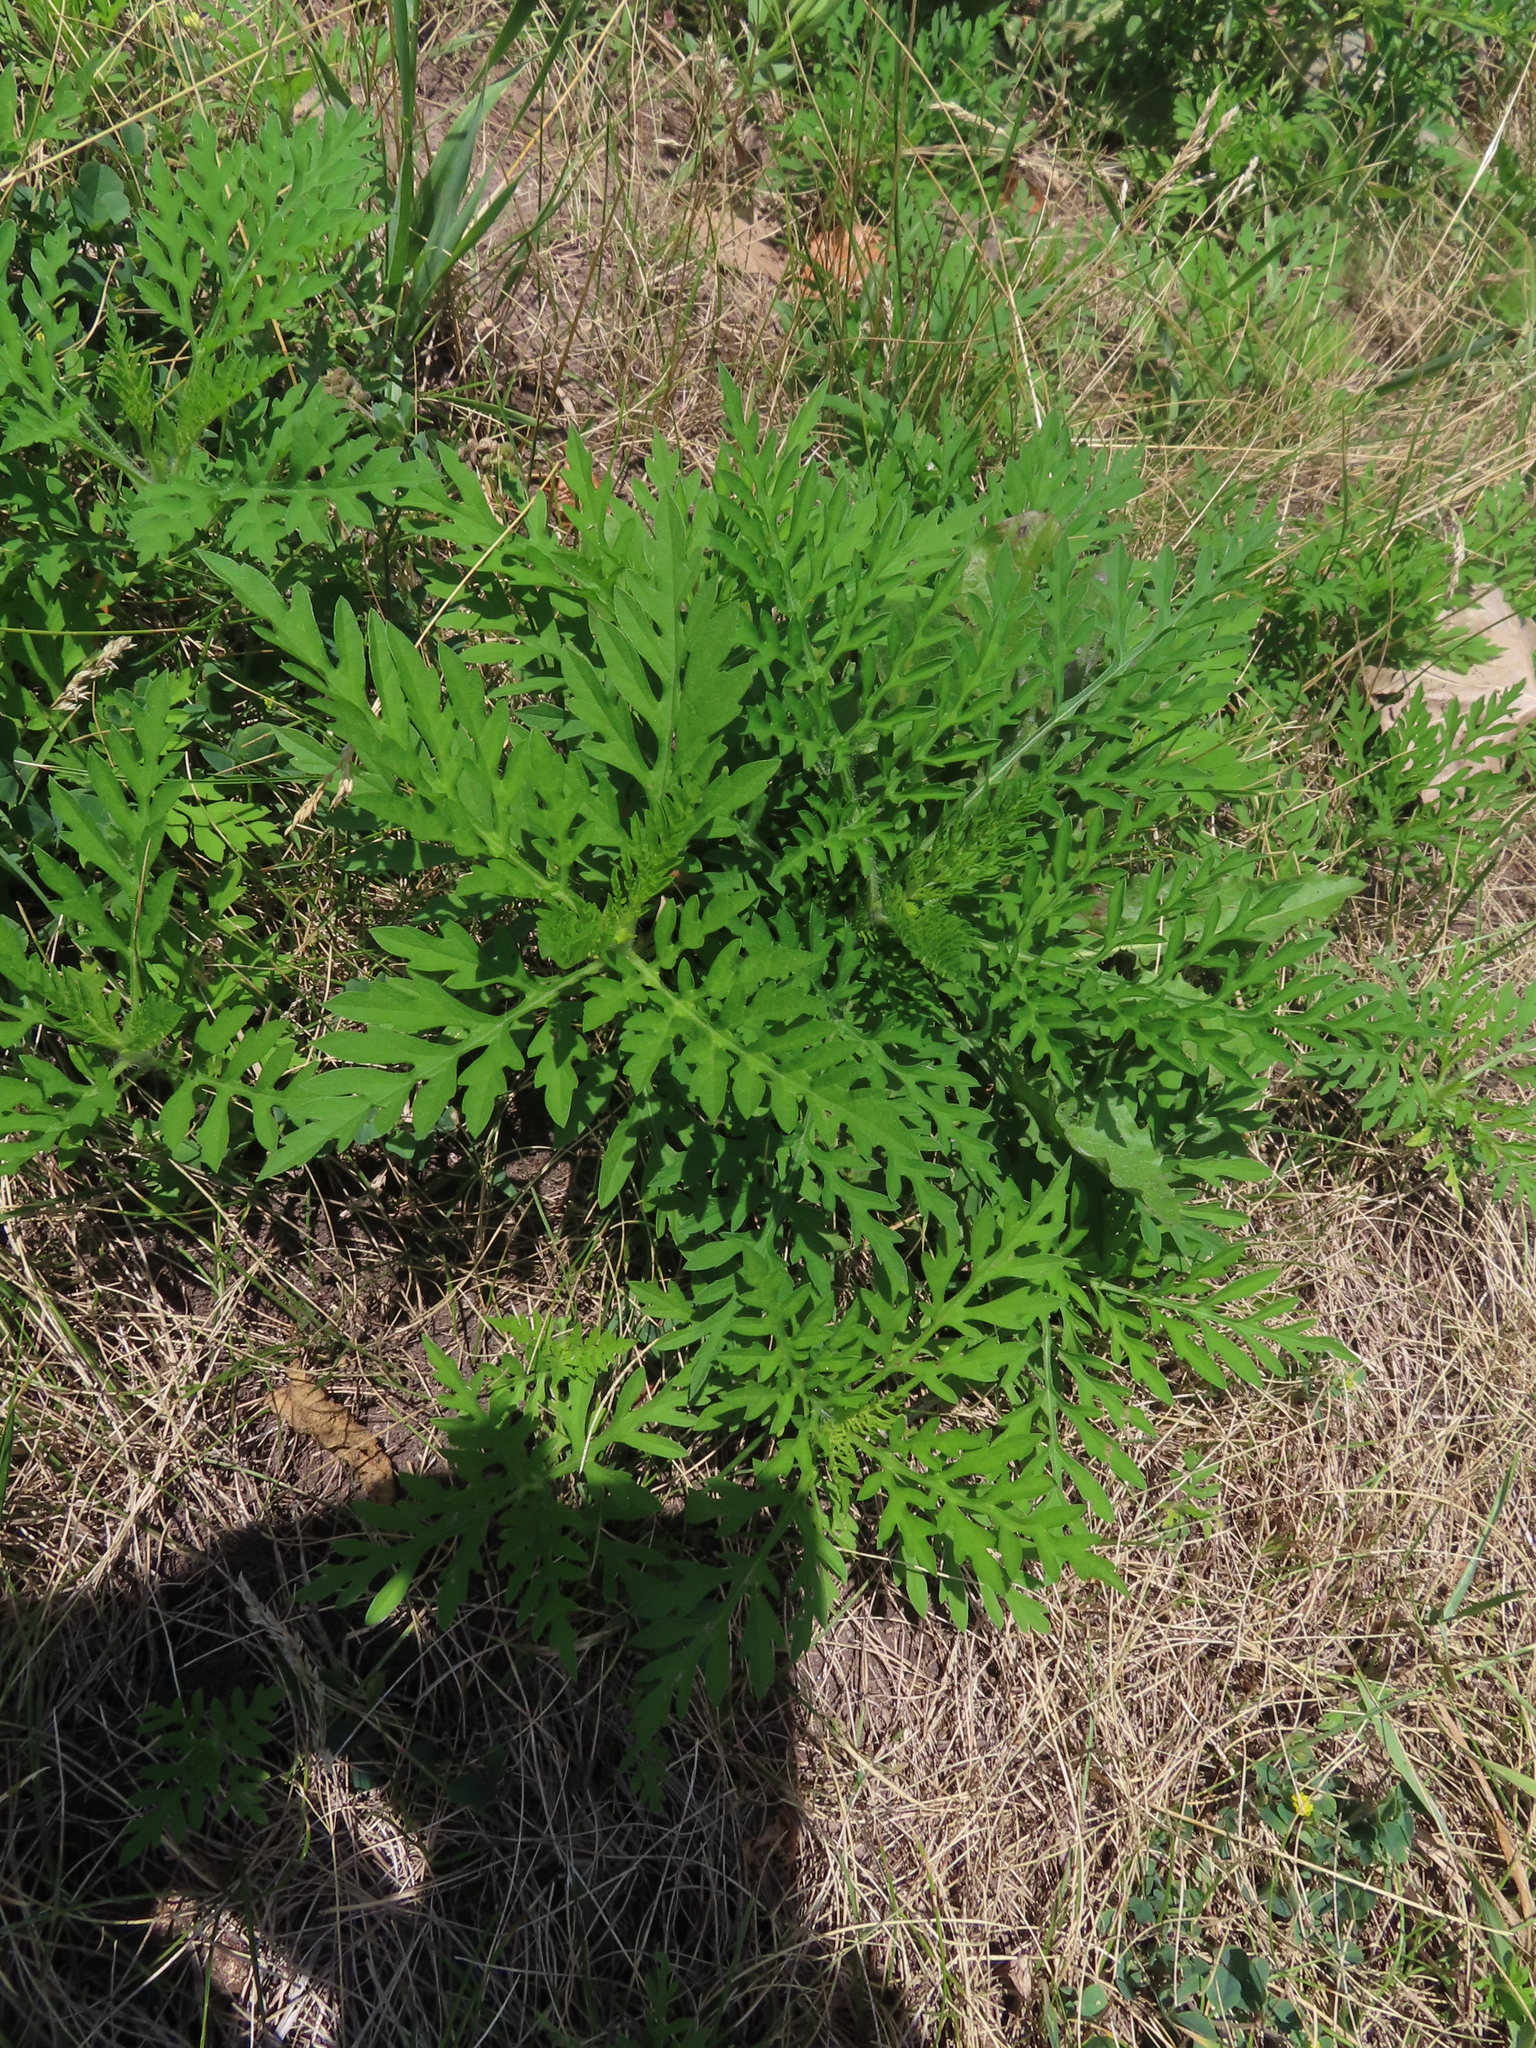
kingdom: Plantae
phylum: Tracheophyta
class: Magnoliopsida
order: Asterales
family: Asteraceae
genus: Ambrosia
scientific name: Ambrosia artemisiifolia
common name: Annual ragweed
